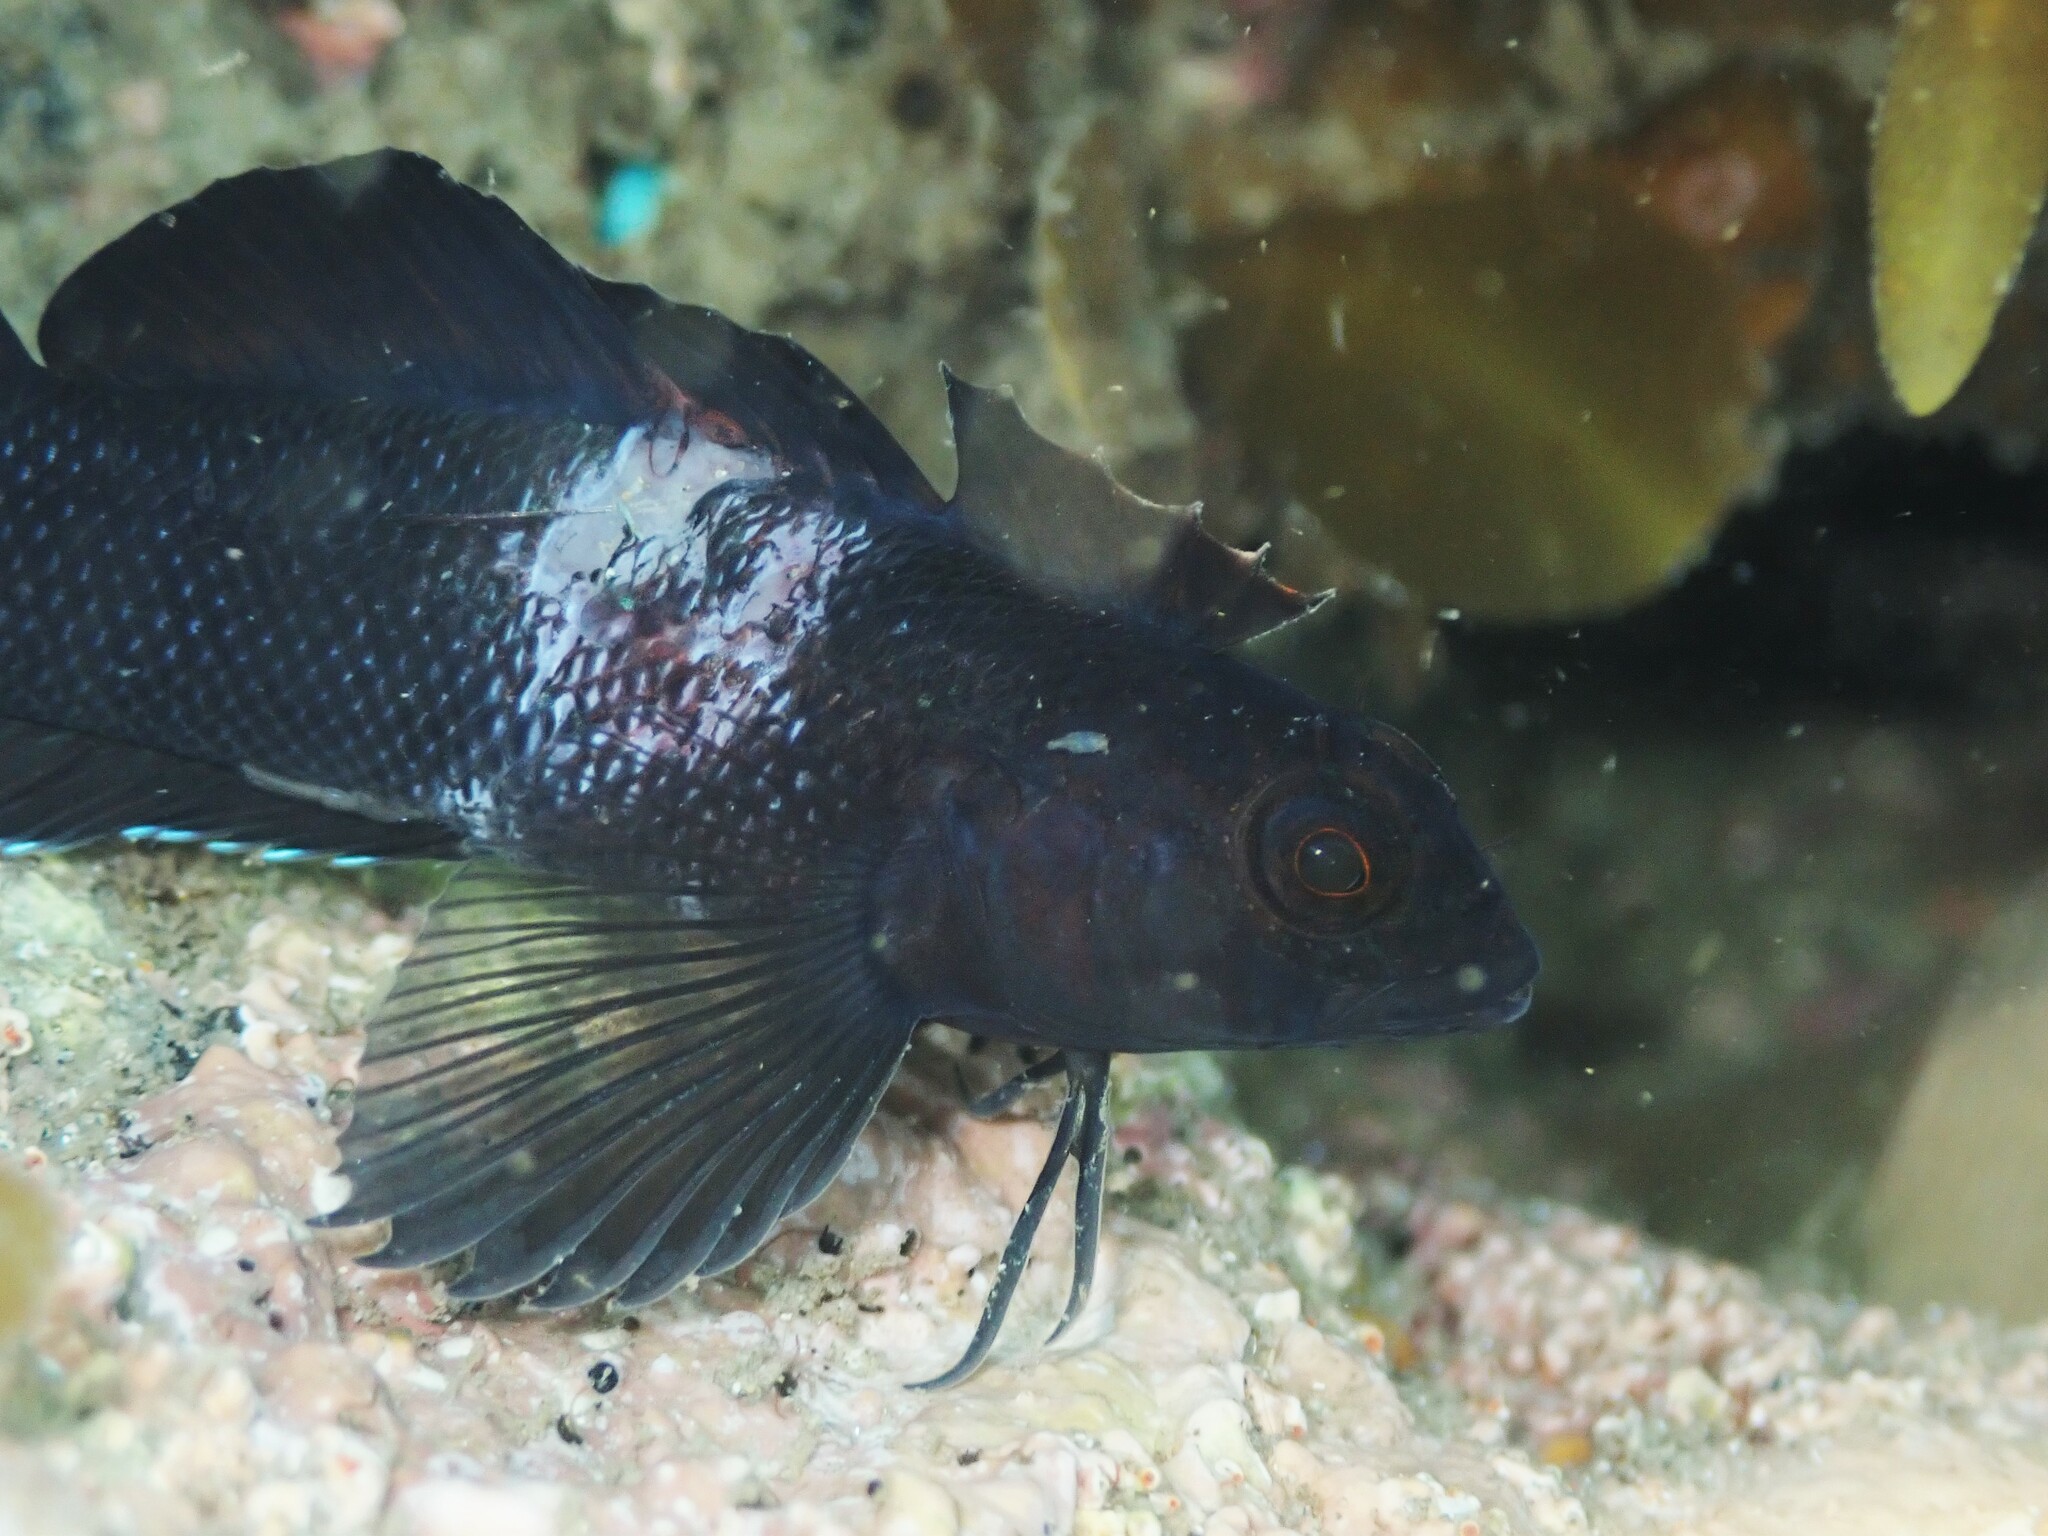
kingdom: Animalia
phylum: Chordata
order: Perciformes
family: Tripterygiidae
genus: Forsterygion
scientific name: Forsterygion lapillum
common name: Common triplefin
